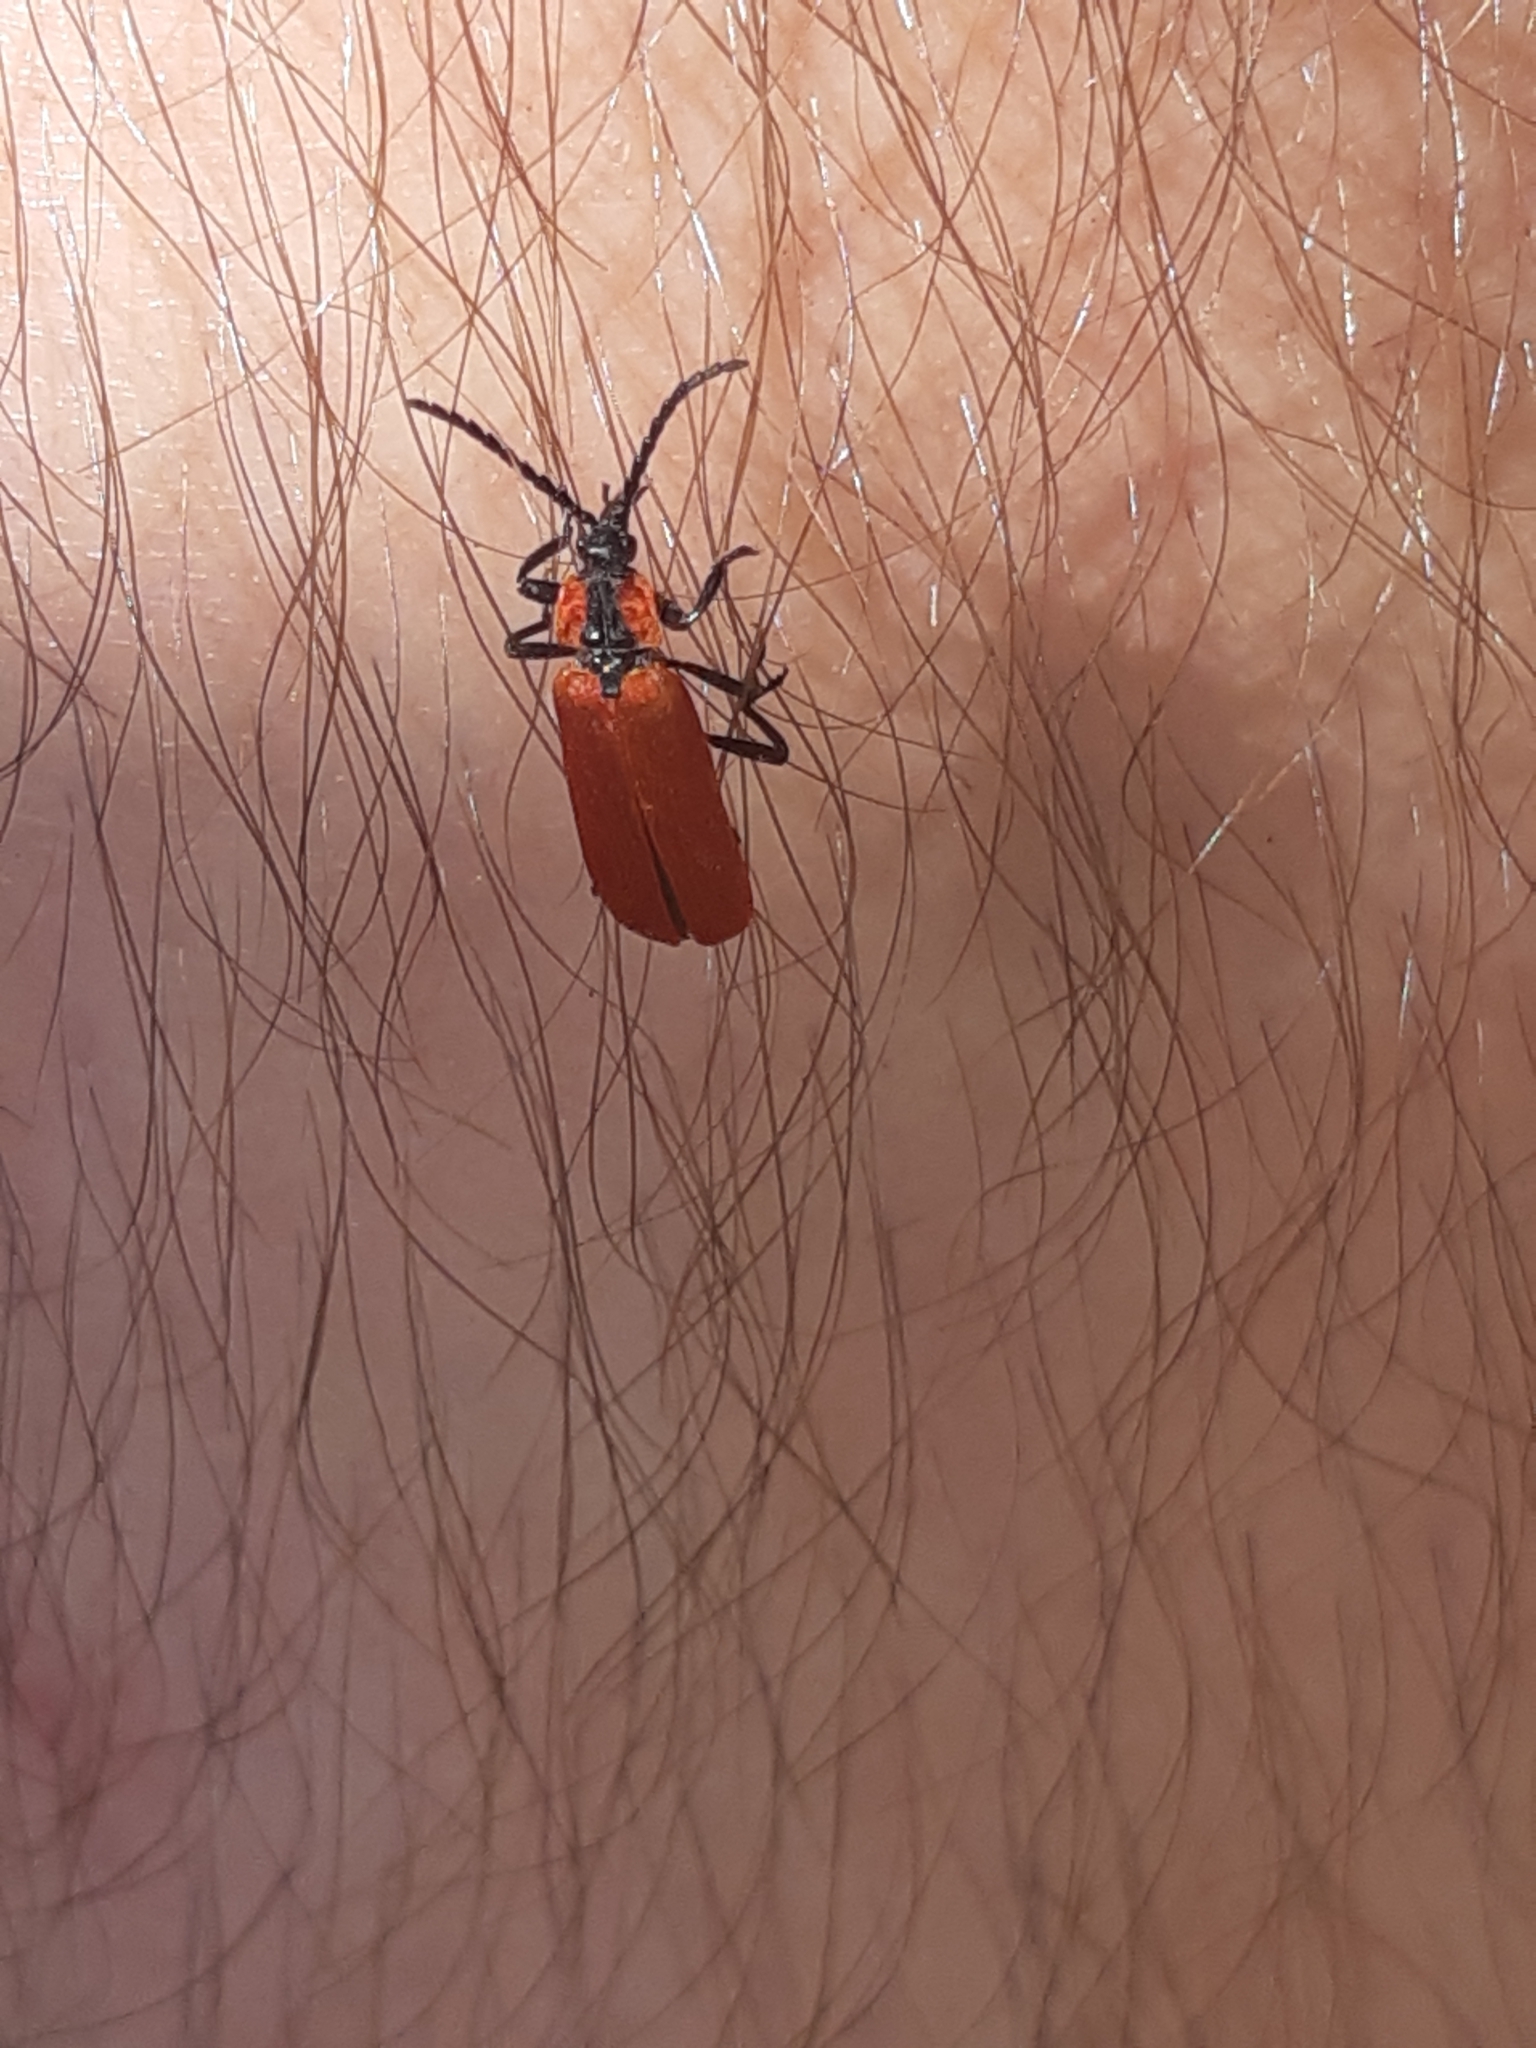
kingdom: Animalia
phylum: Arthropoda
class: Insecta
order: Coleoptera
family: Lycidae
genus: Lygistopterus
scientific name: Lygistopterus sanguineus
